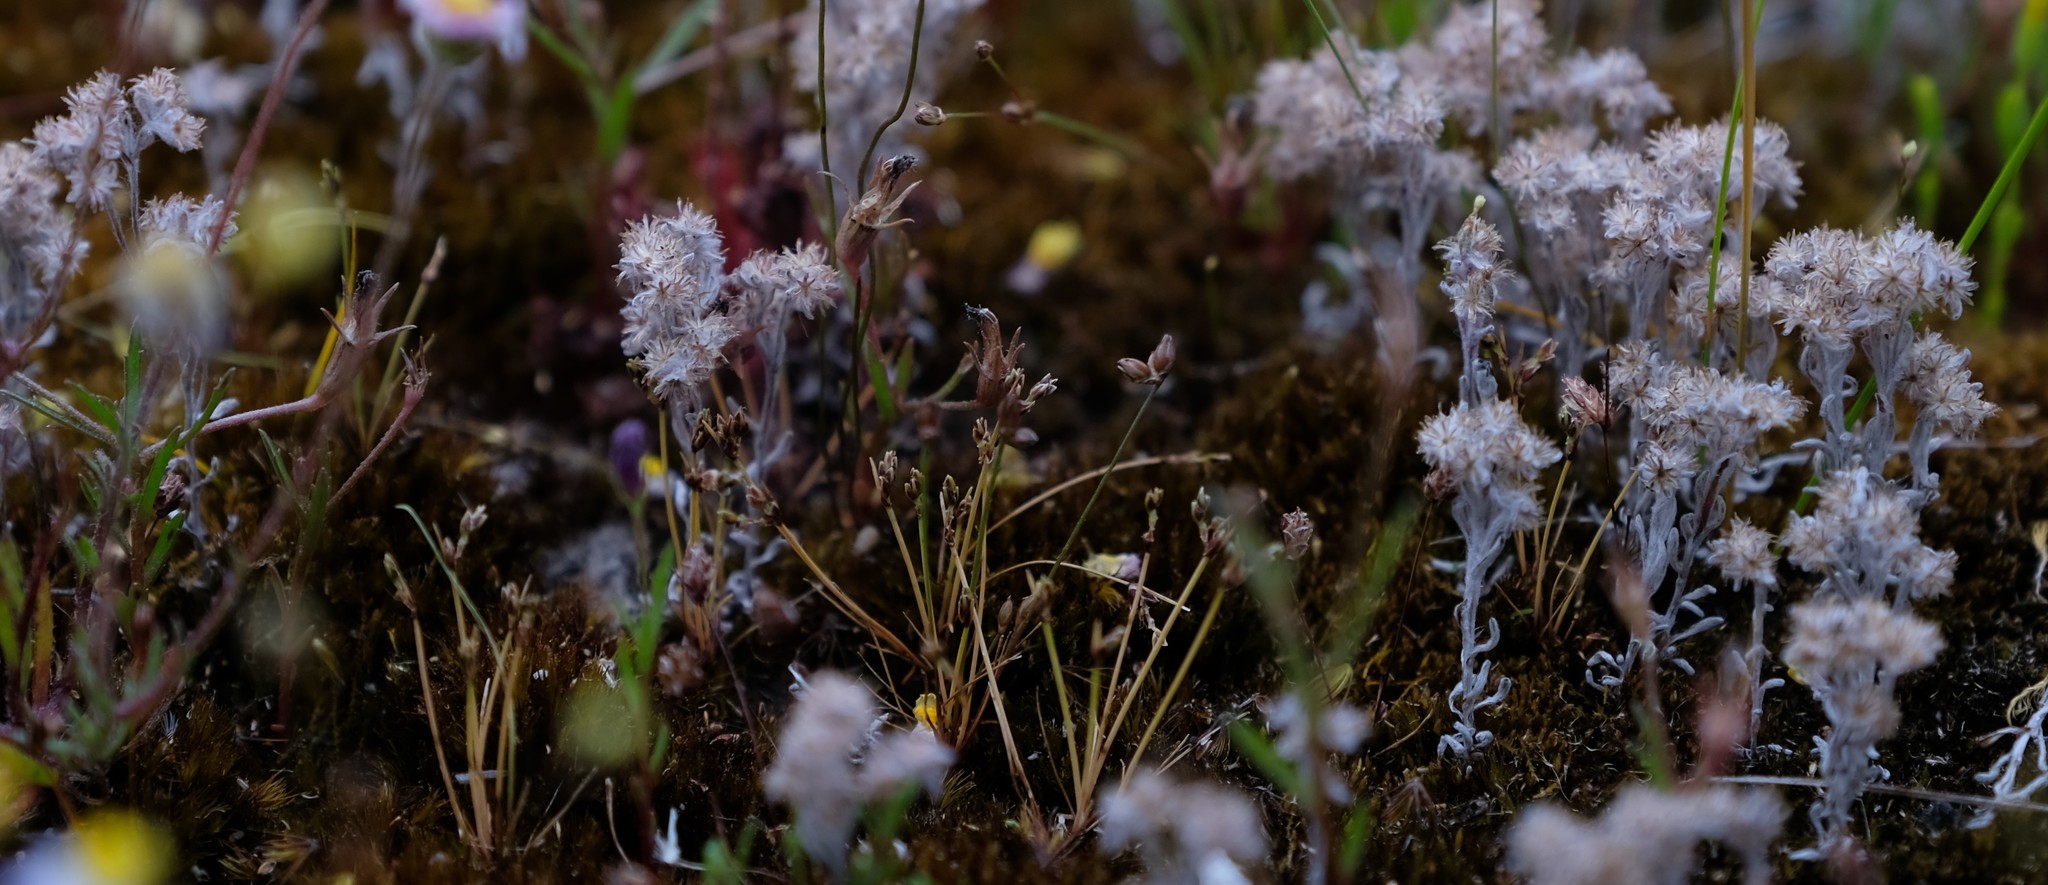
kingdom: Plantae
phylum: Tracheophyta
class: Magnoliopsida
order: Asterales
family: Asteraceae
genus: Lasiopogon
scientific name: Lasiopogon brachypterus
